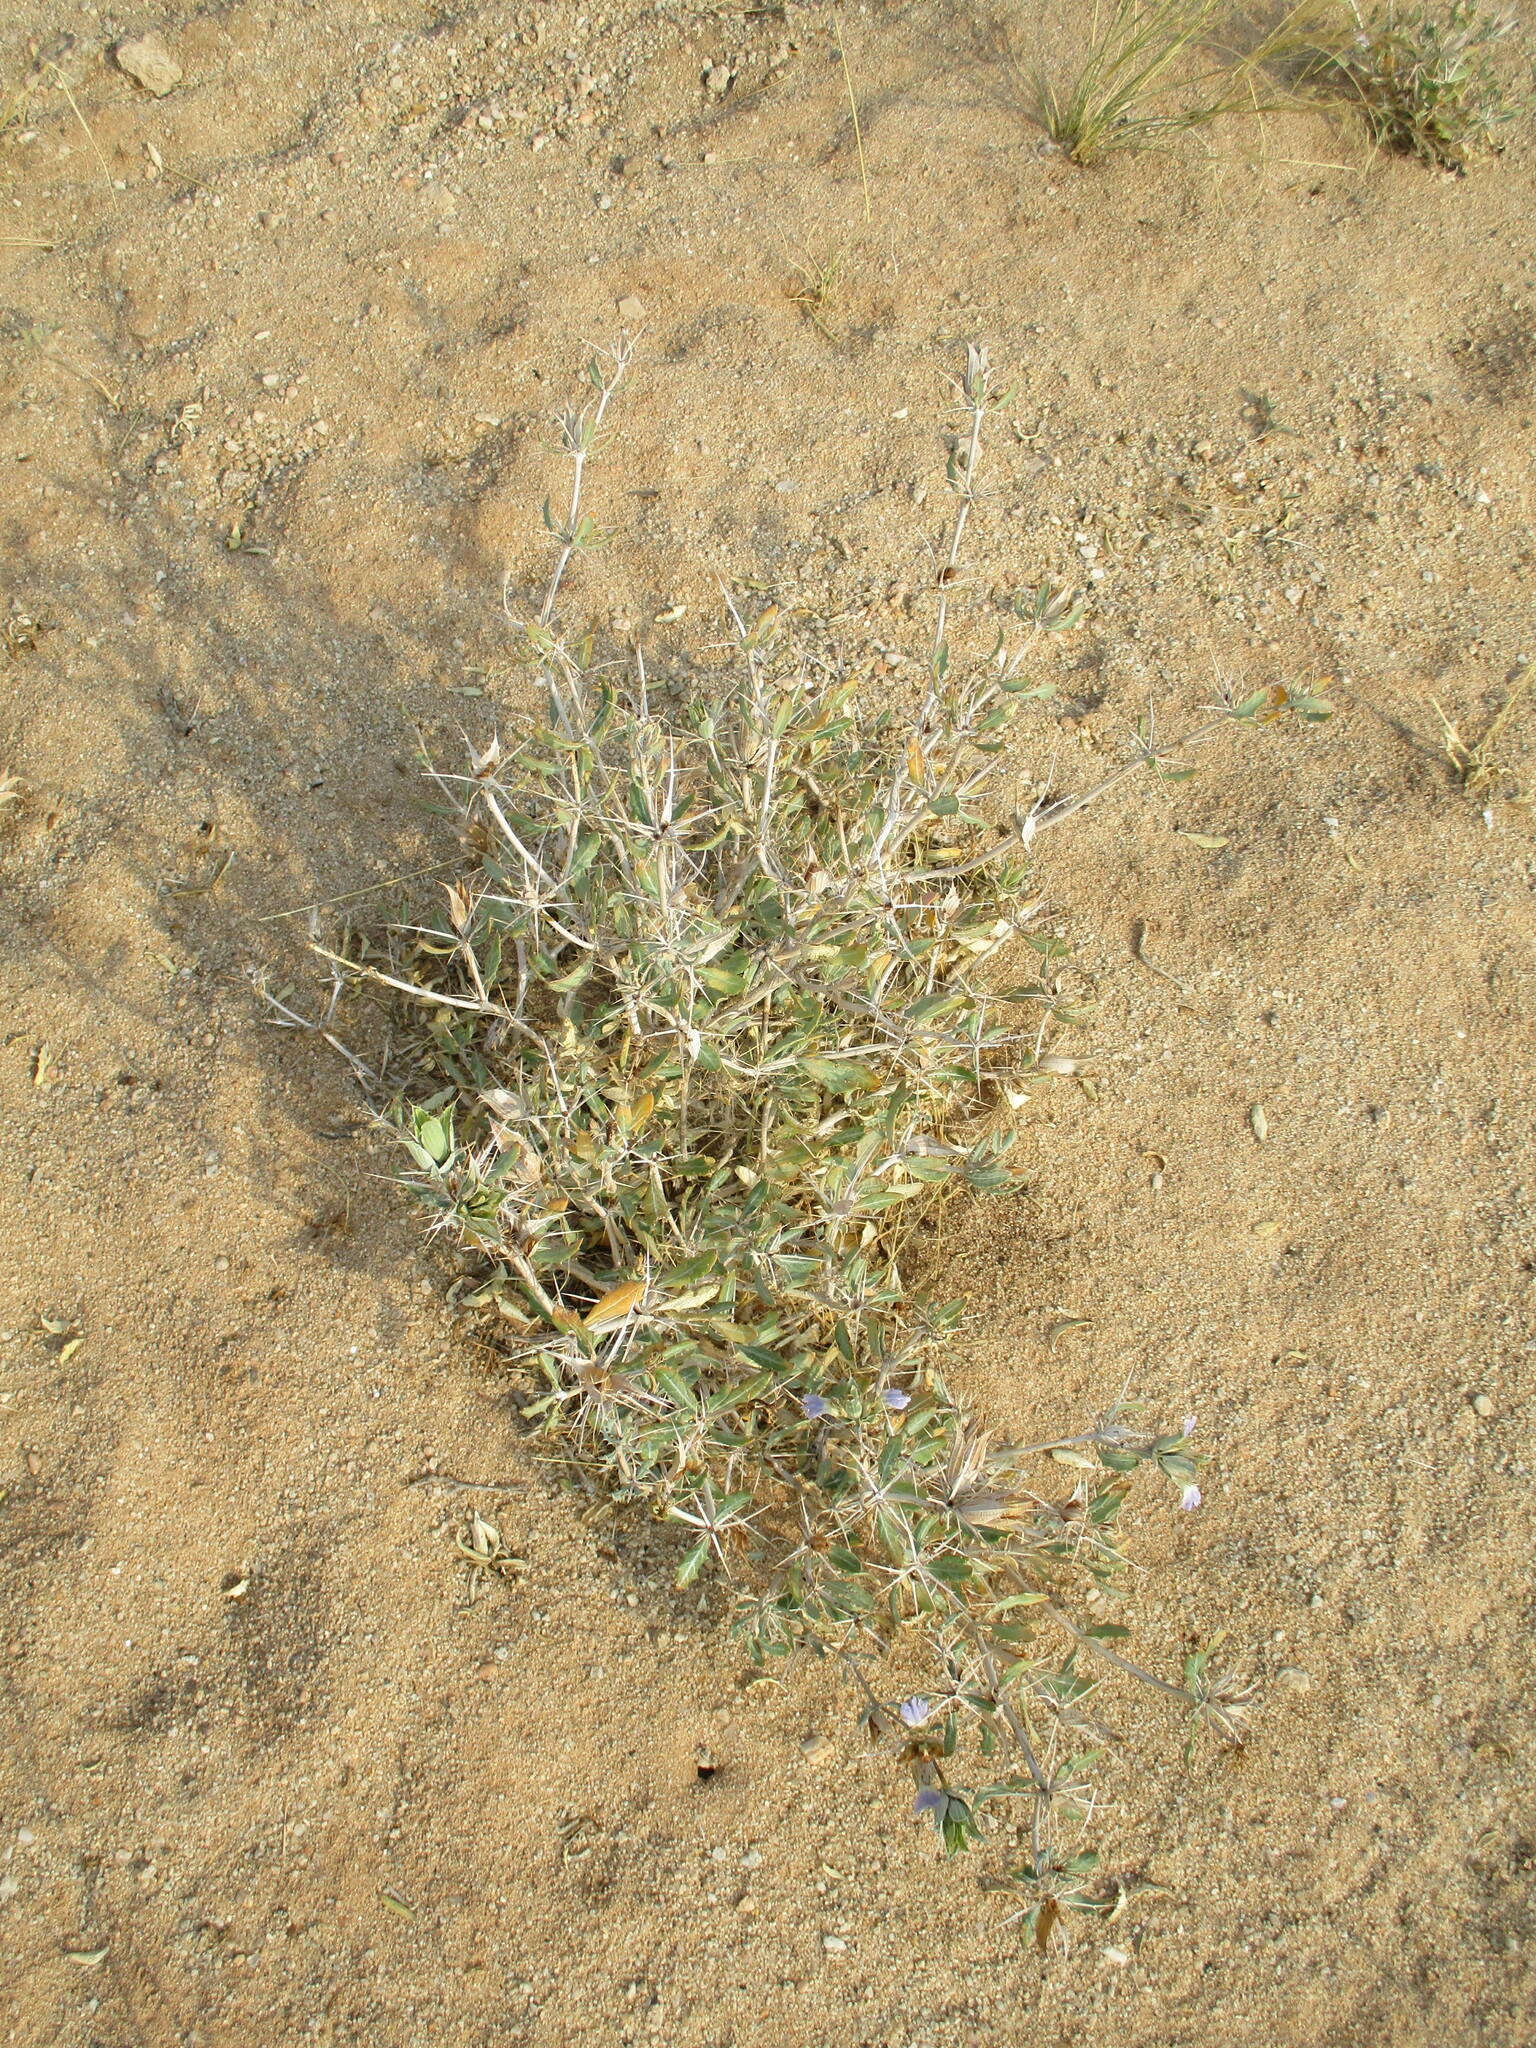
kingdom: Plantae
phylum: Tracheophyta
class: Magnoliopsida
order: Lamiales
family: Acanthaceae
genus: Blepharis
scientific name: Blepharis pruinosa
